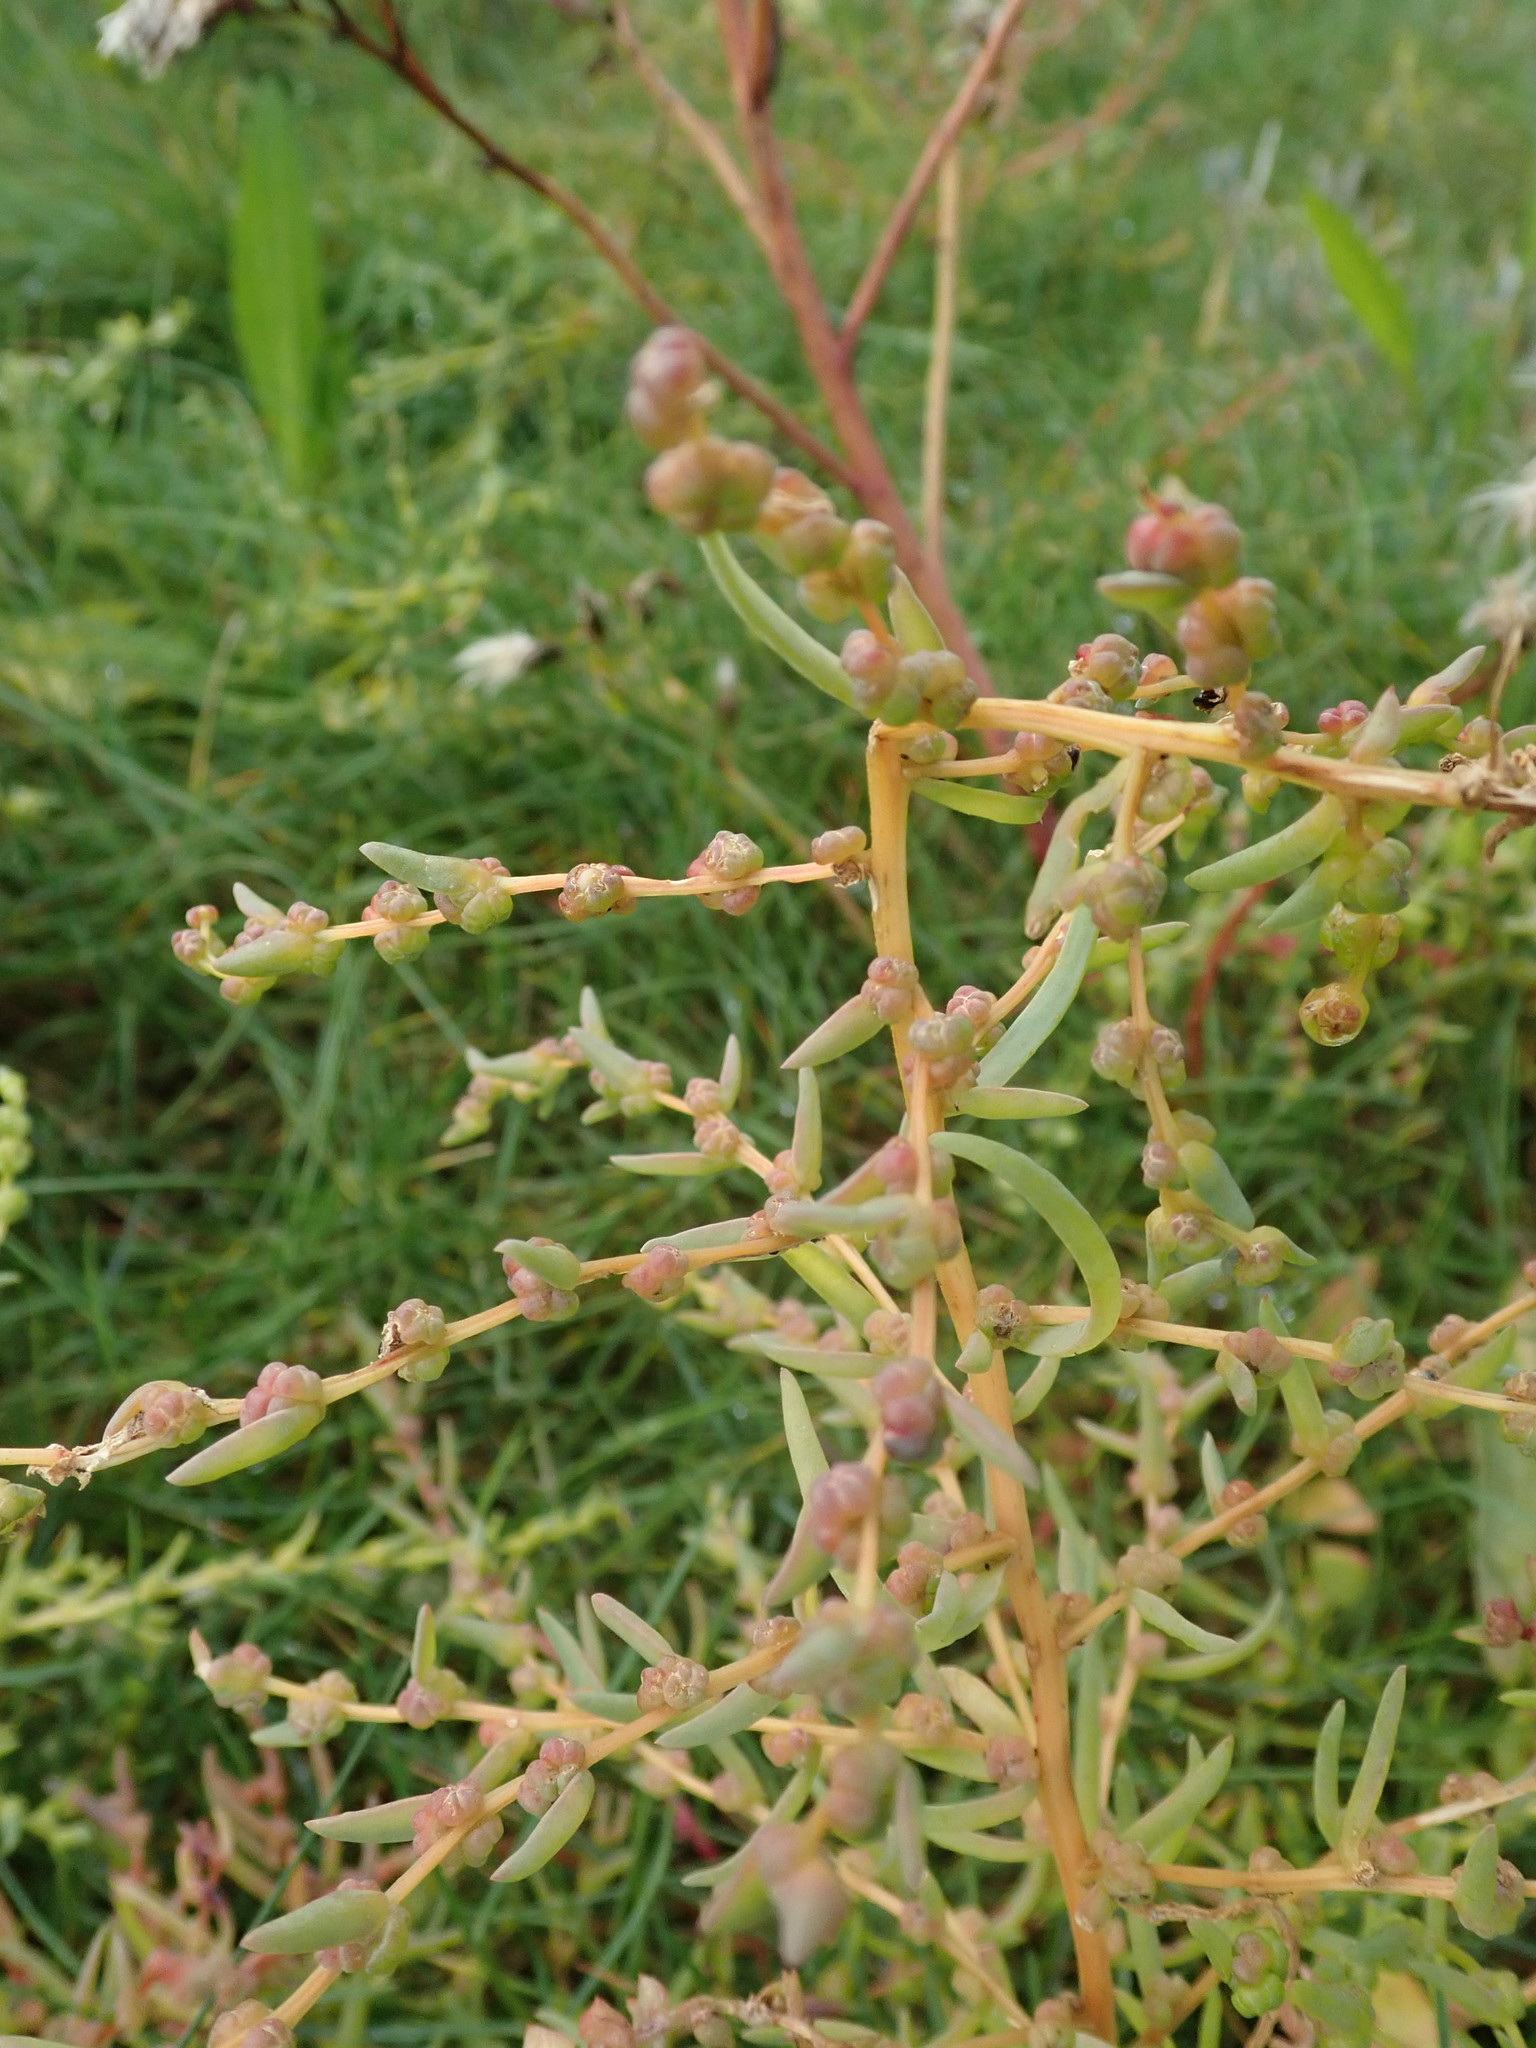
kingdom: Plantae
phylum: Tracheophyta
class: Magnoliopsida
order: Caryophyllales
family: Amaranthaceae
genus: Suaeda
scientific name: Suaeda maritima
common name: Annual sea-blite
